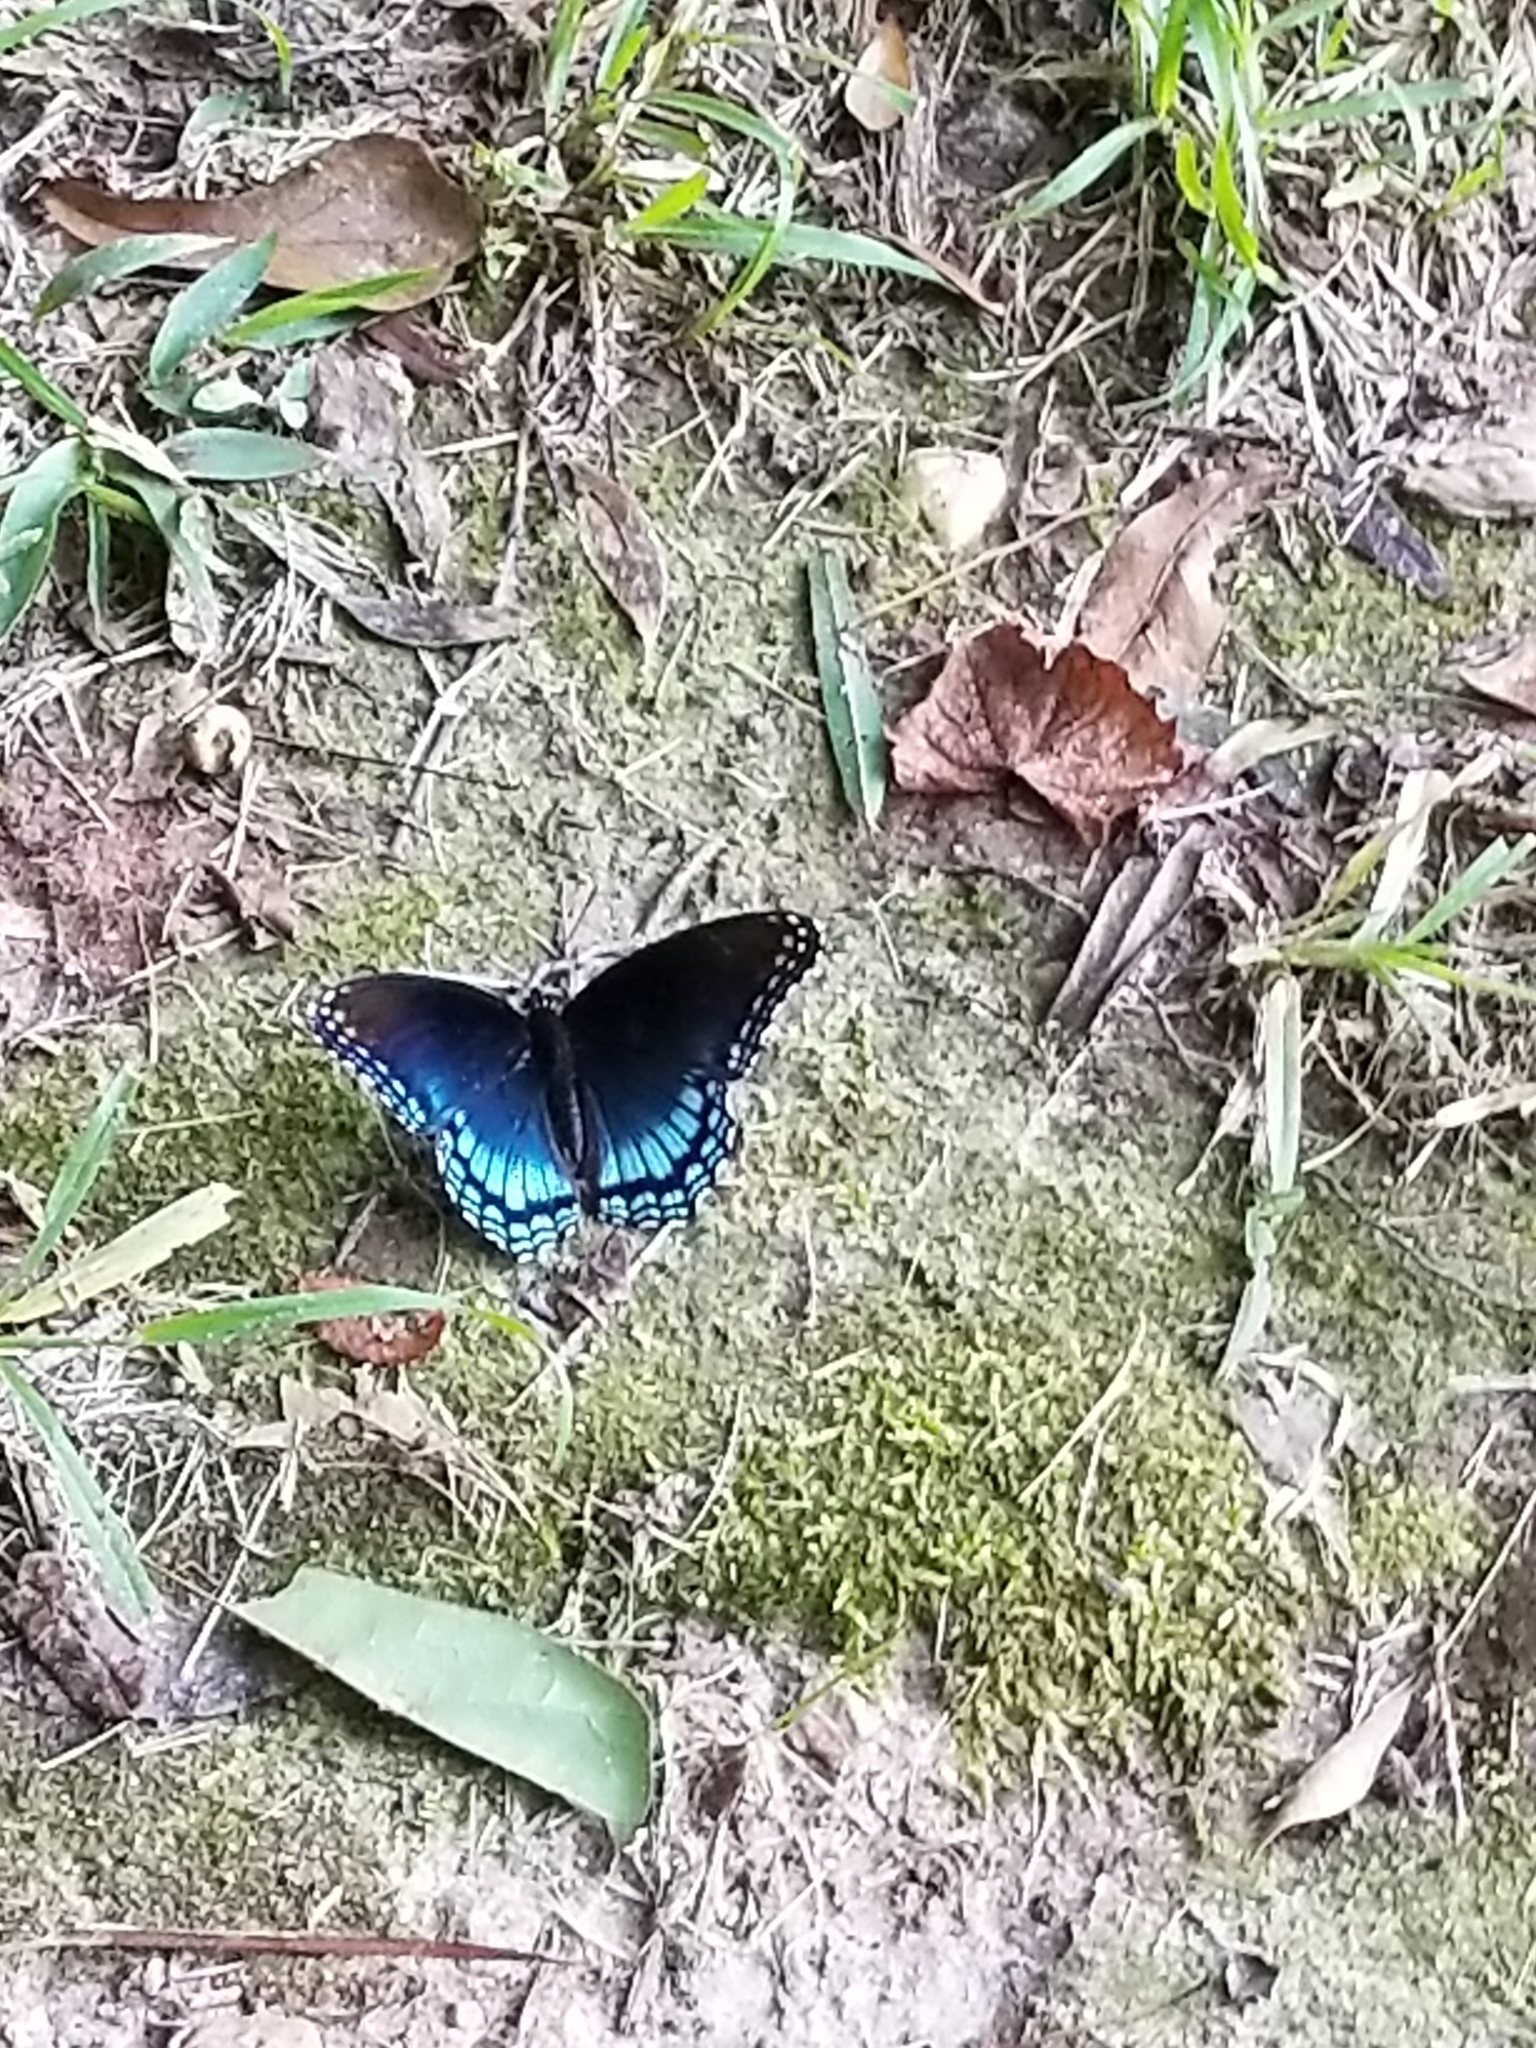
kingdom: Animalia
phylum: Arthropoda
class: Insecta
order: Lepidoptera
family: Nymphalidae
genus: Limenitis
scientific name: Limenitis astyanax
